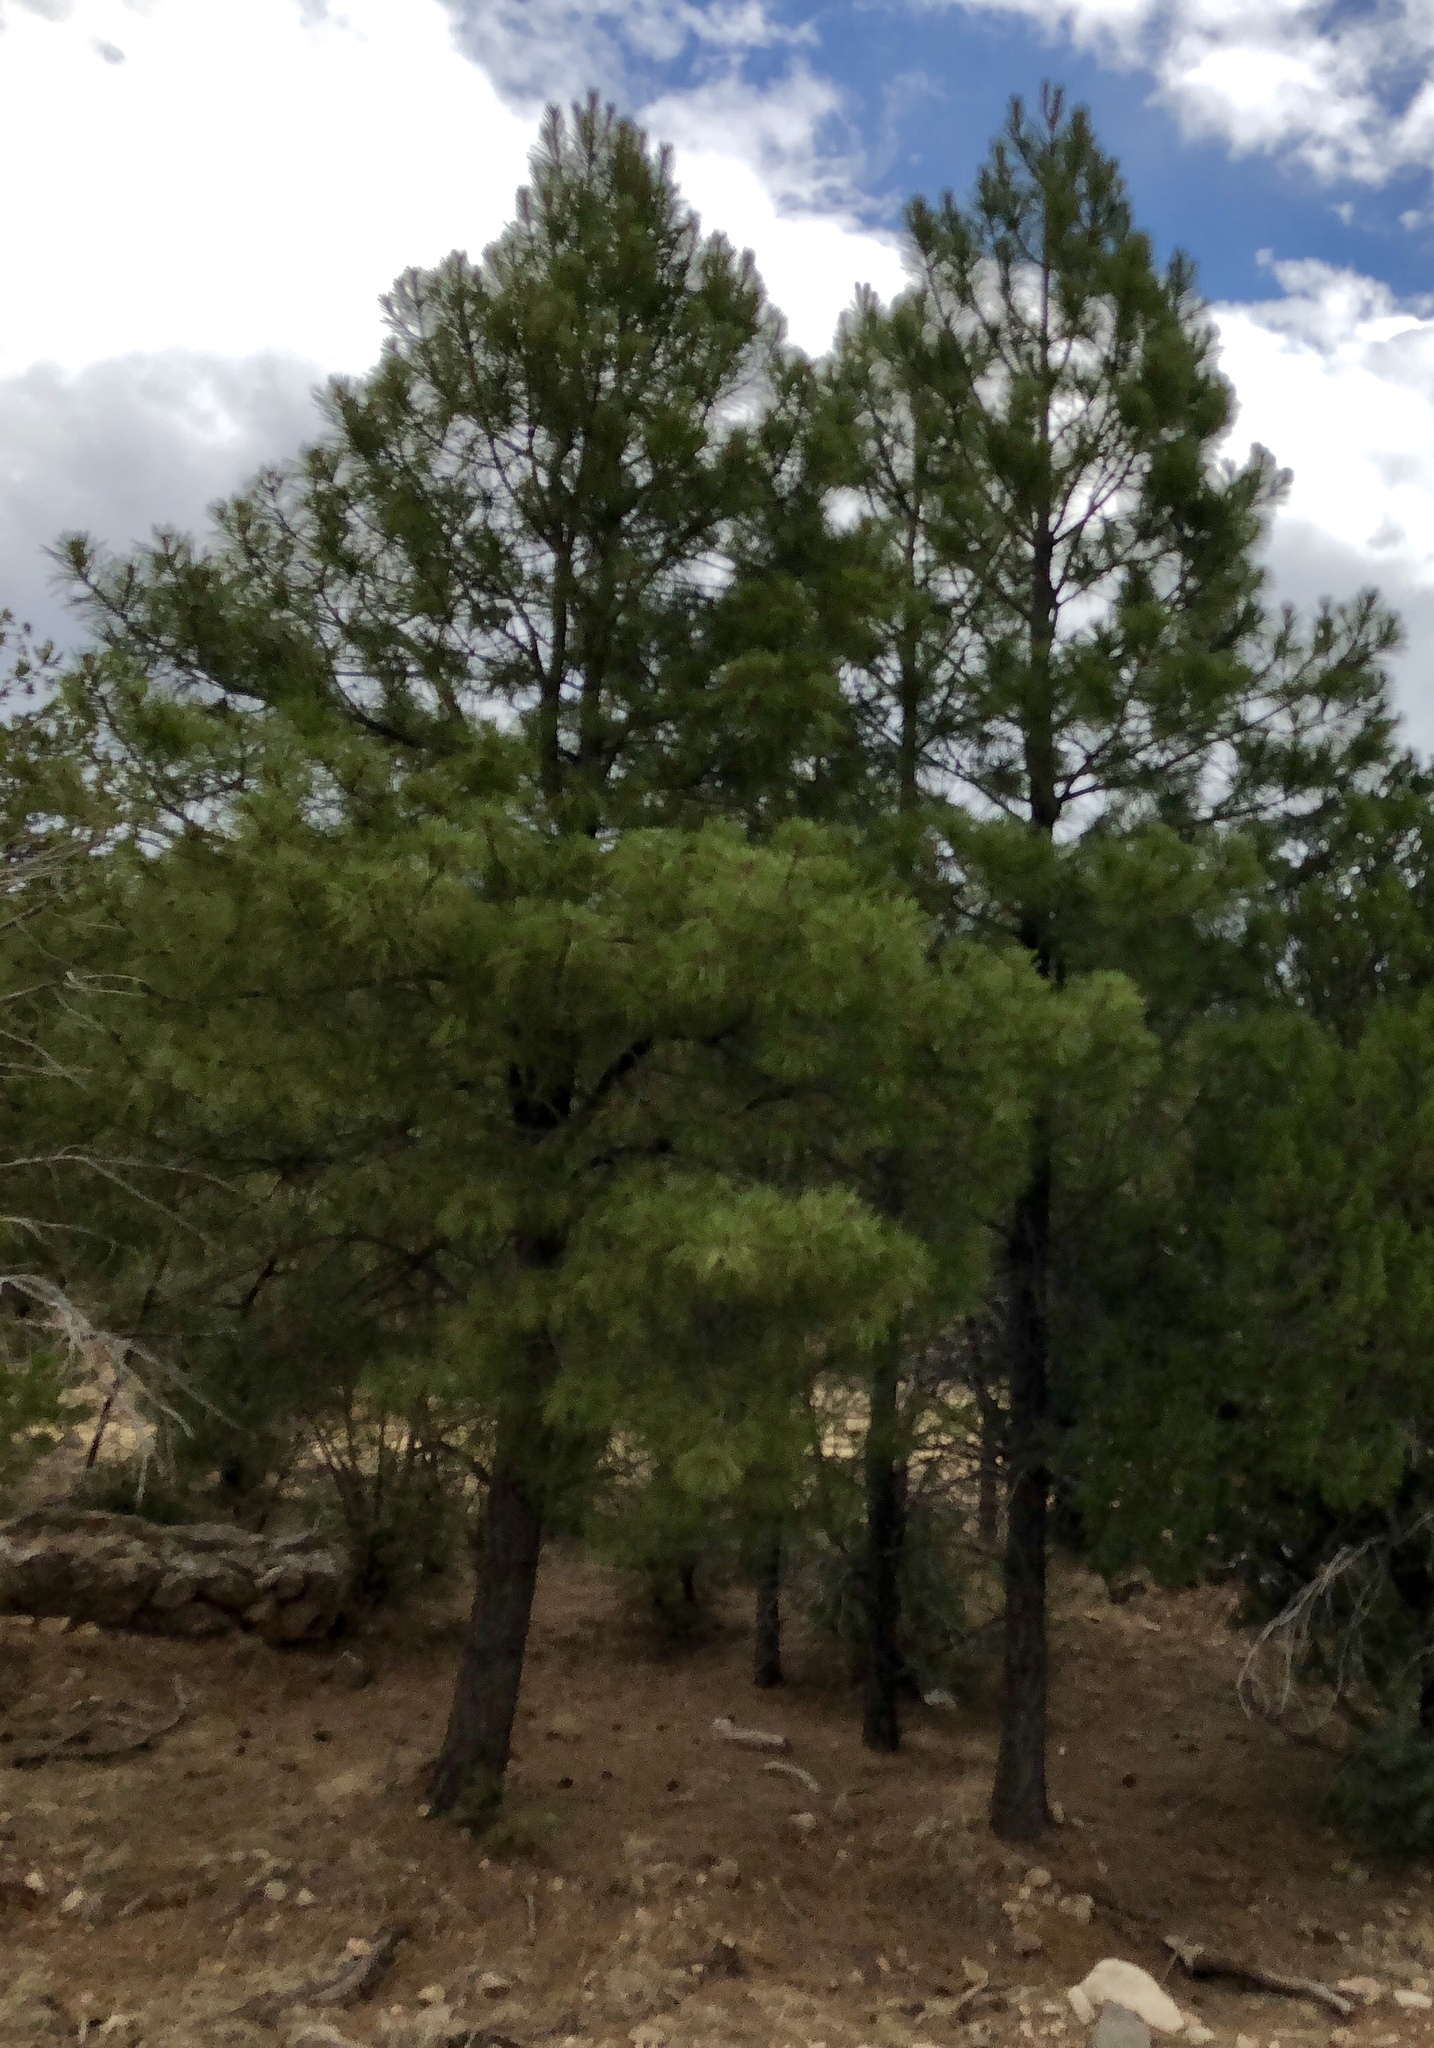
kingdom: Plantae
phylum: Tracheophyta
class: Pinopsida
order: Pinales
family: Pinaceae
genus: Pinus
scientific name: Pinus ponderosa
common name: Western yellow-pine
